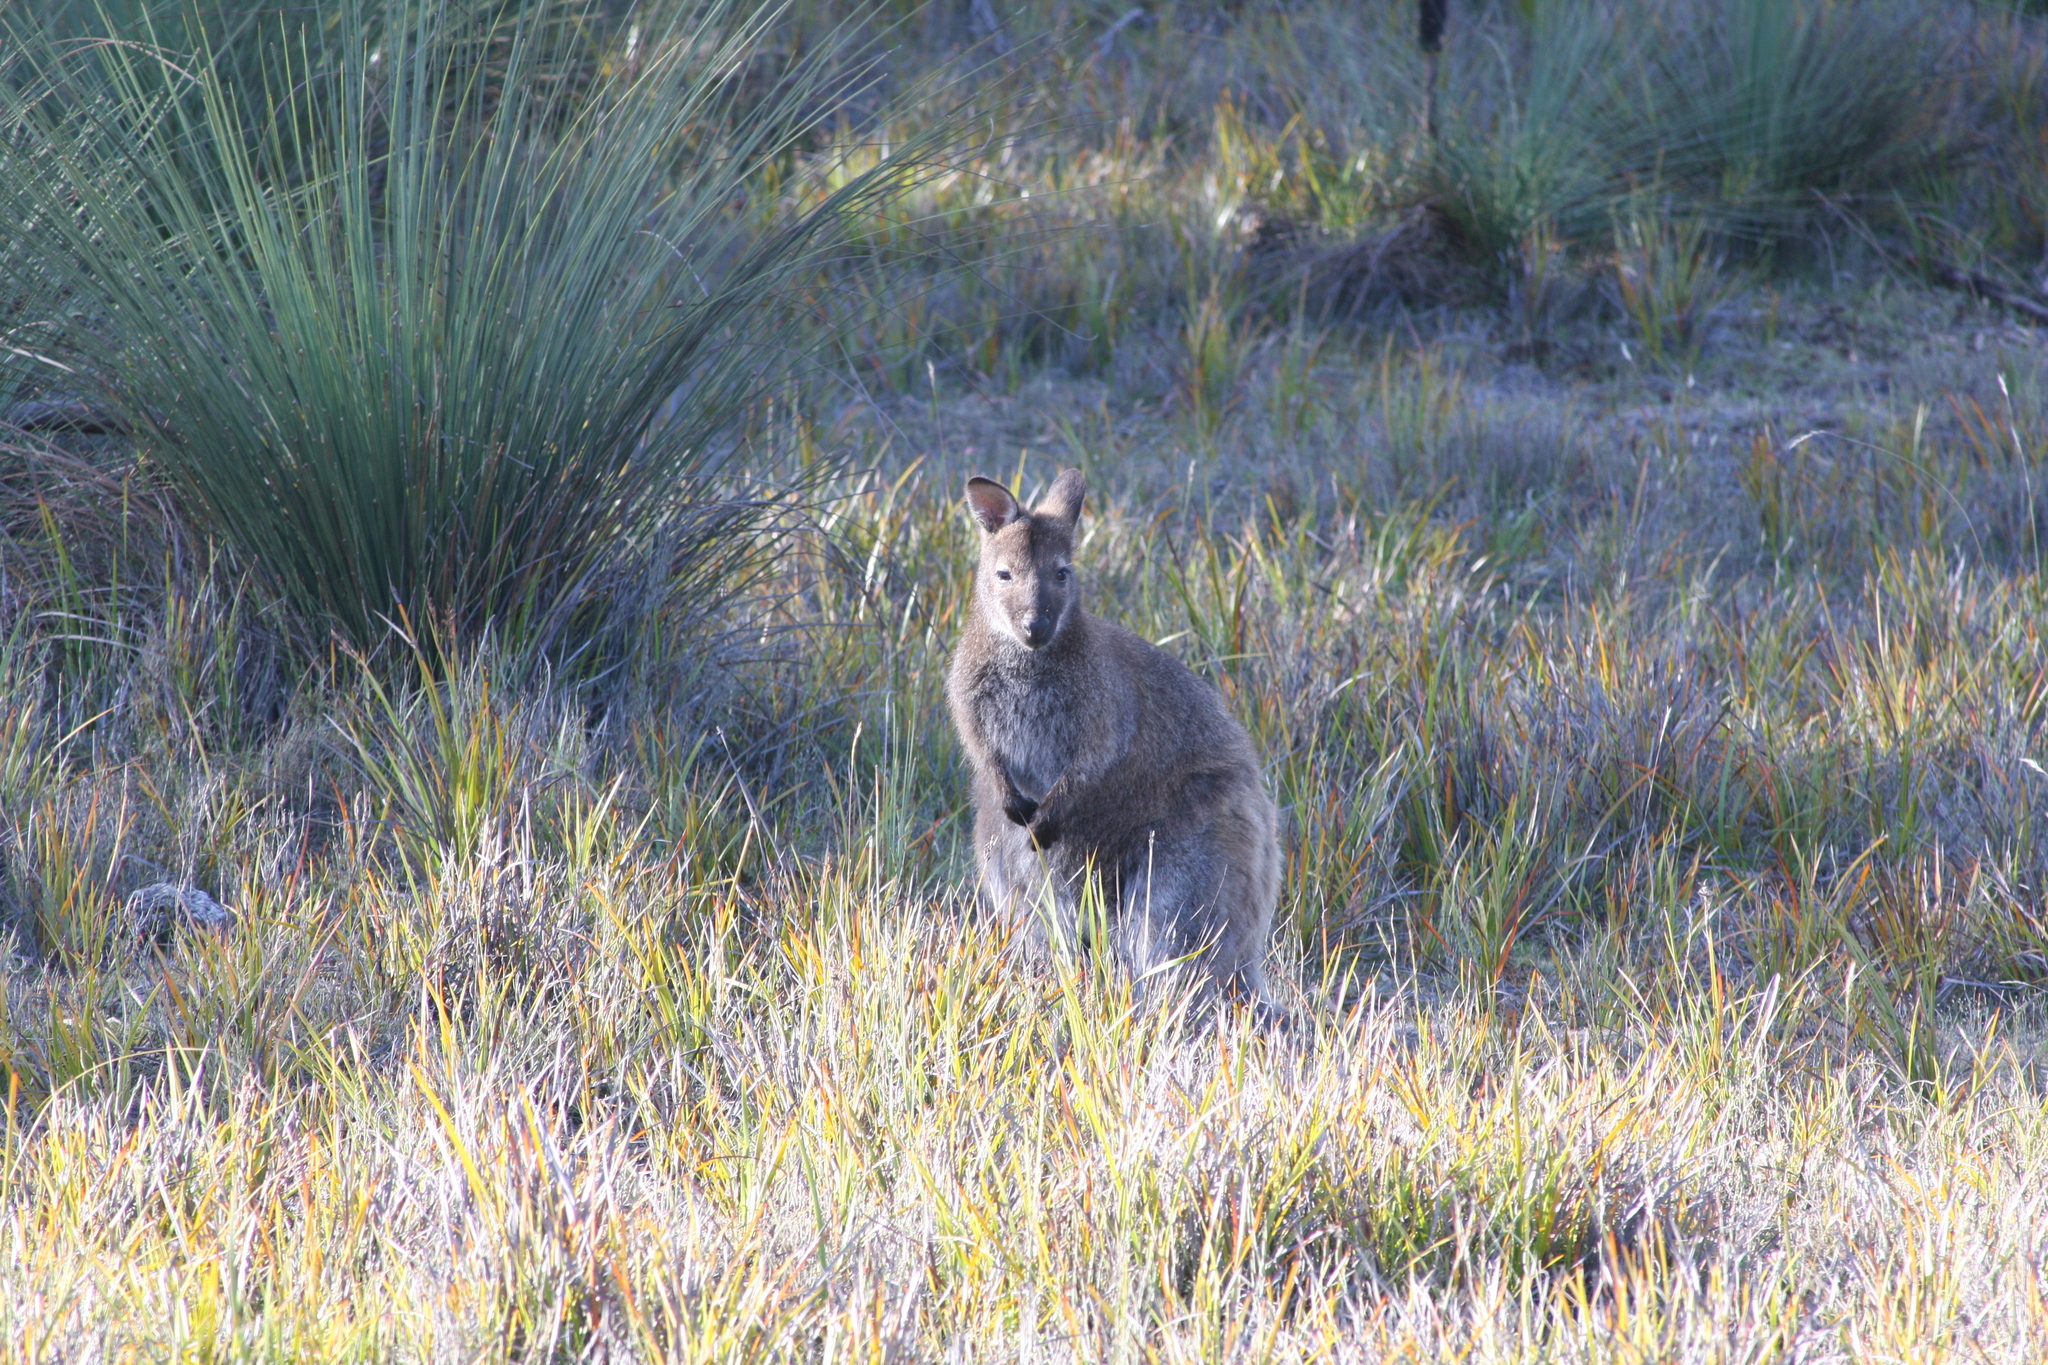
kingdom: Animalia
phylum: Chordata
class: Mammalia
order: Diprotodontia
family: Macropodidae
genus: Notamacropus
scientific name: Notamacropus rufogriseus
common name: Red-necked wallaby
